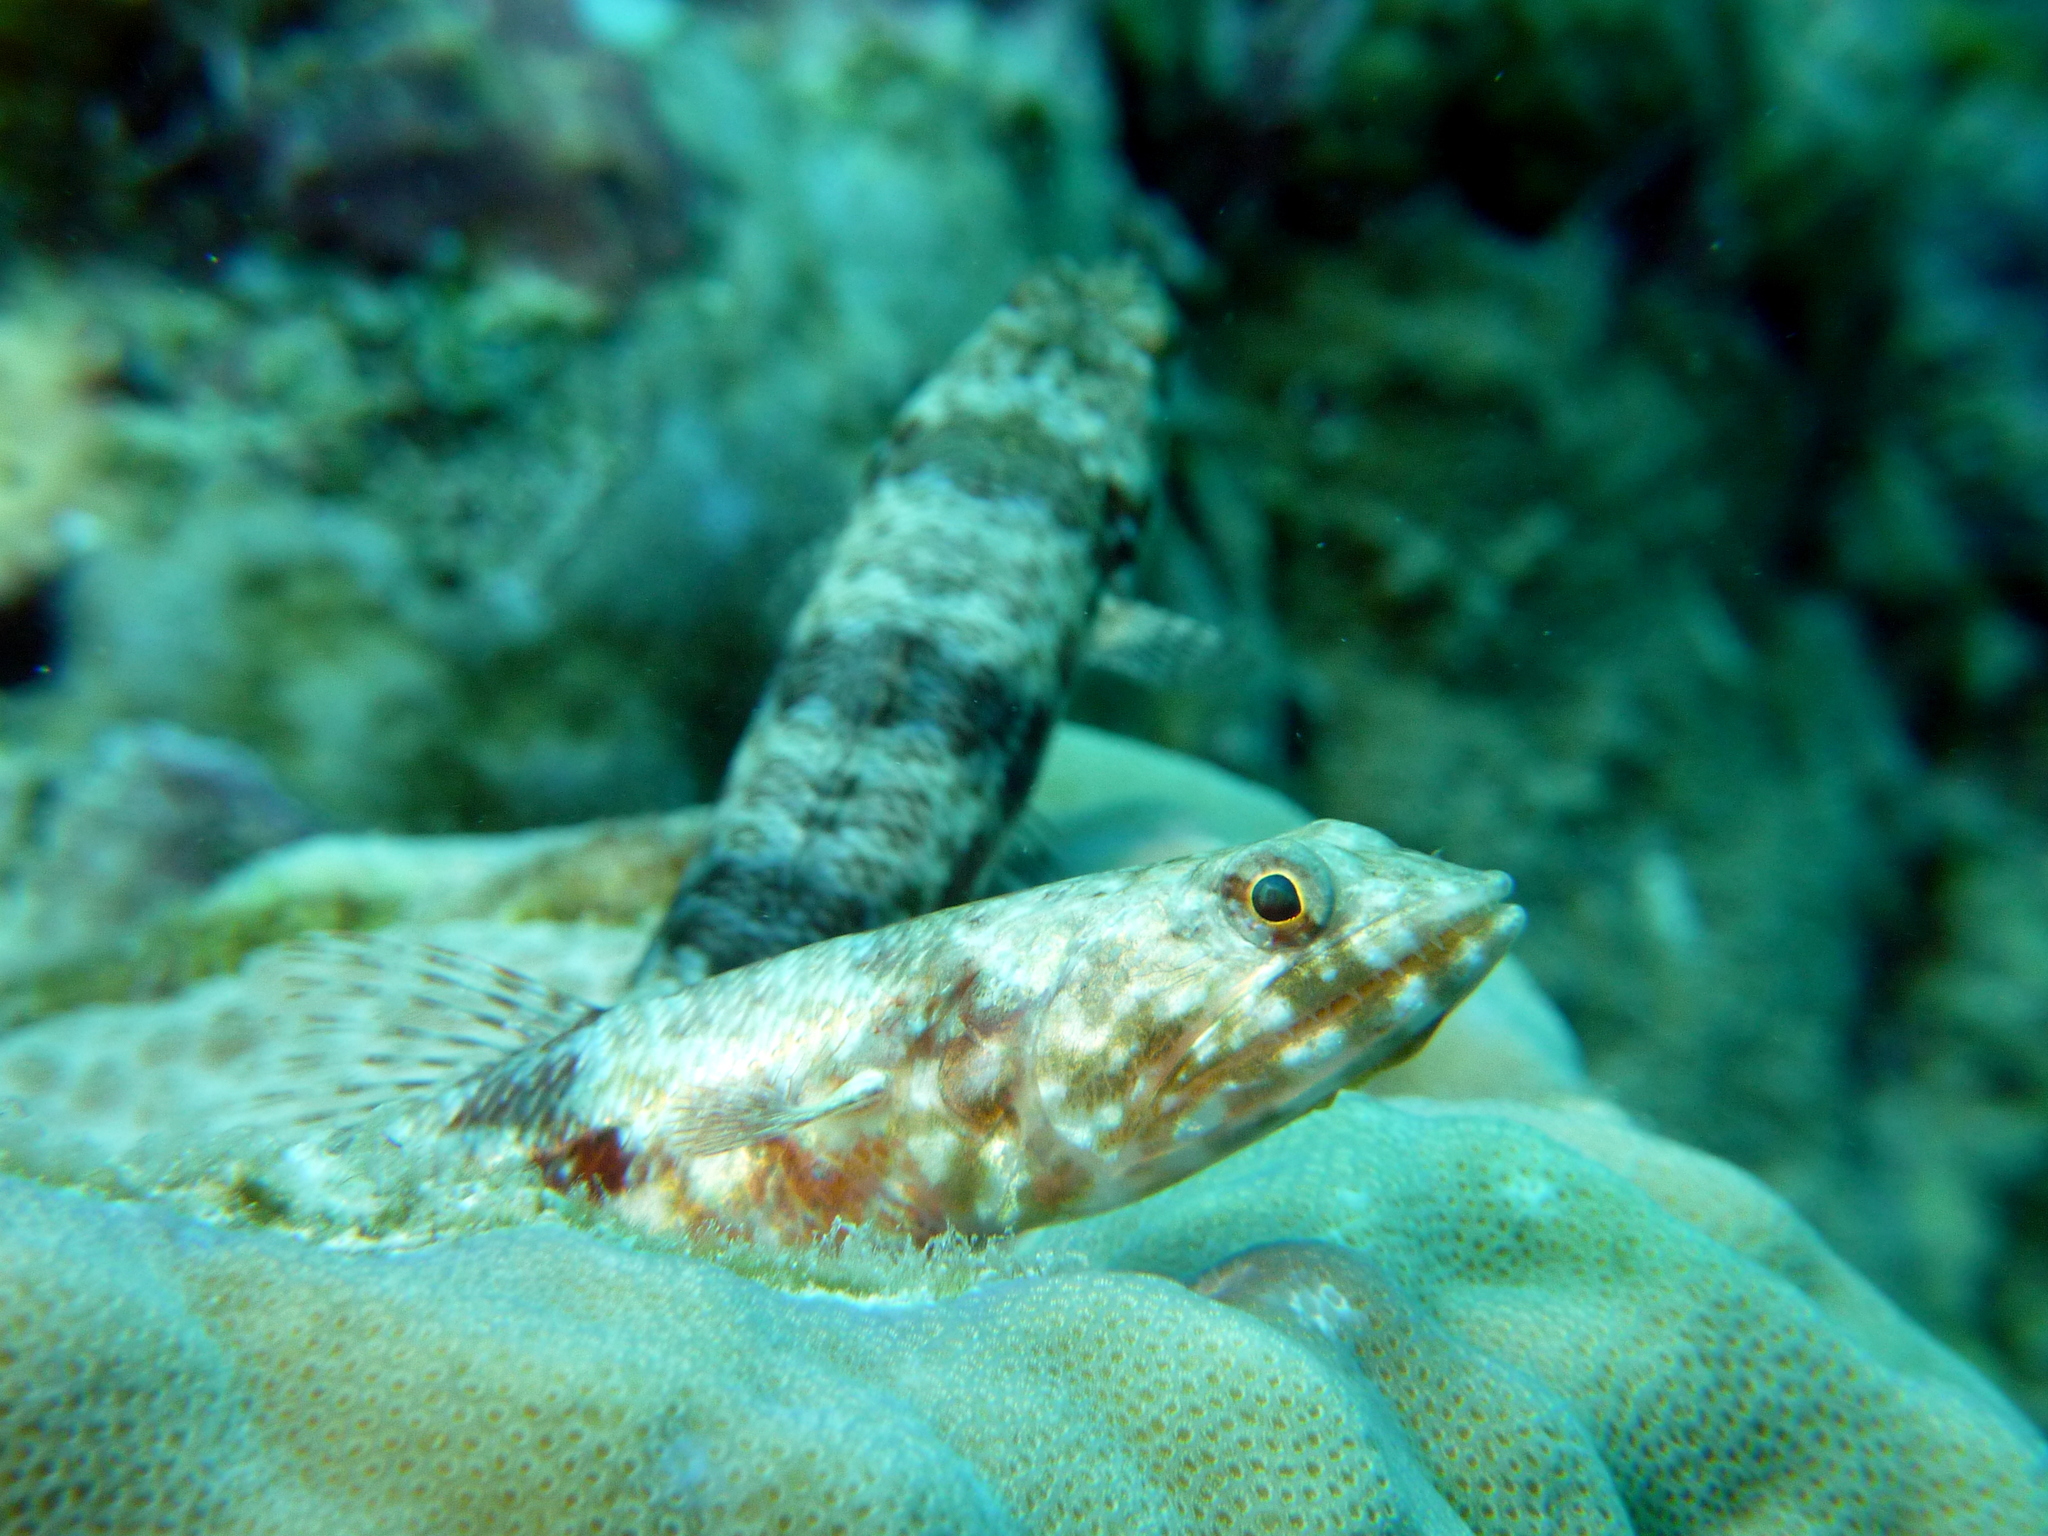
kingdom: Animalia
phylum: Chordata
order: Aulopiformes
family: Synodontidae
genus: Synodus
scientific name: Synodus variegatus
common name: Variegated lizardfish
